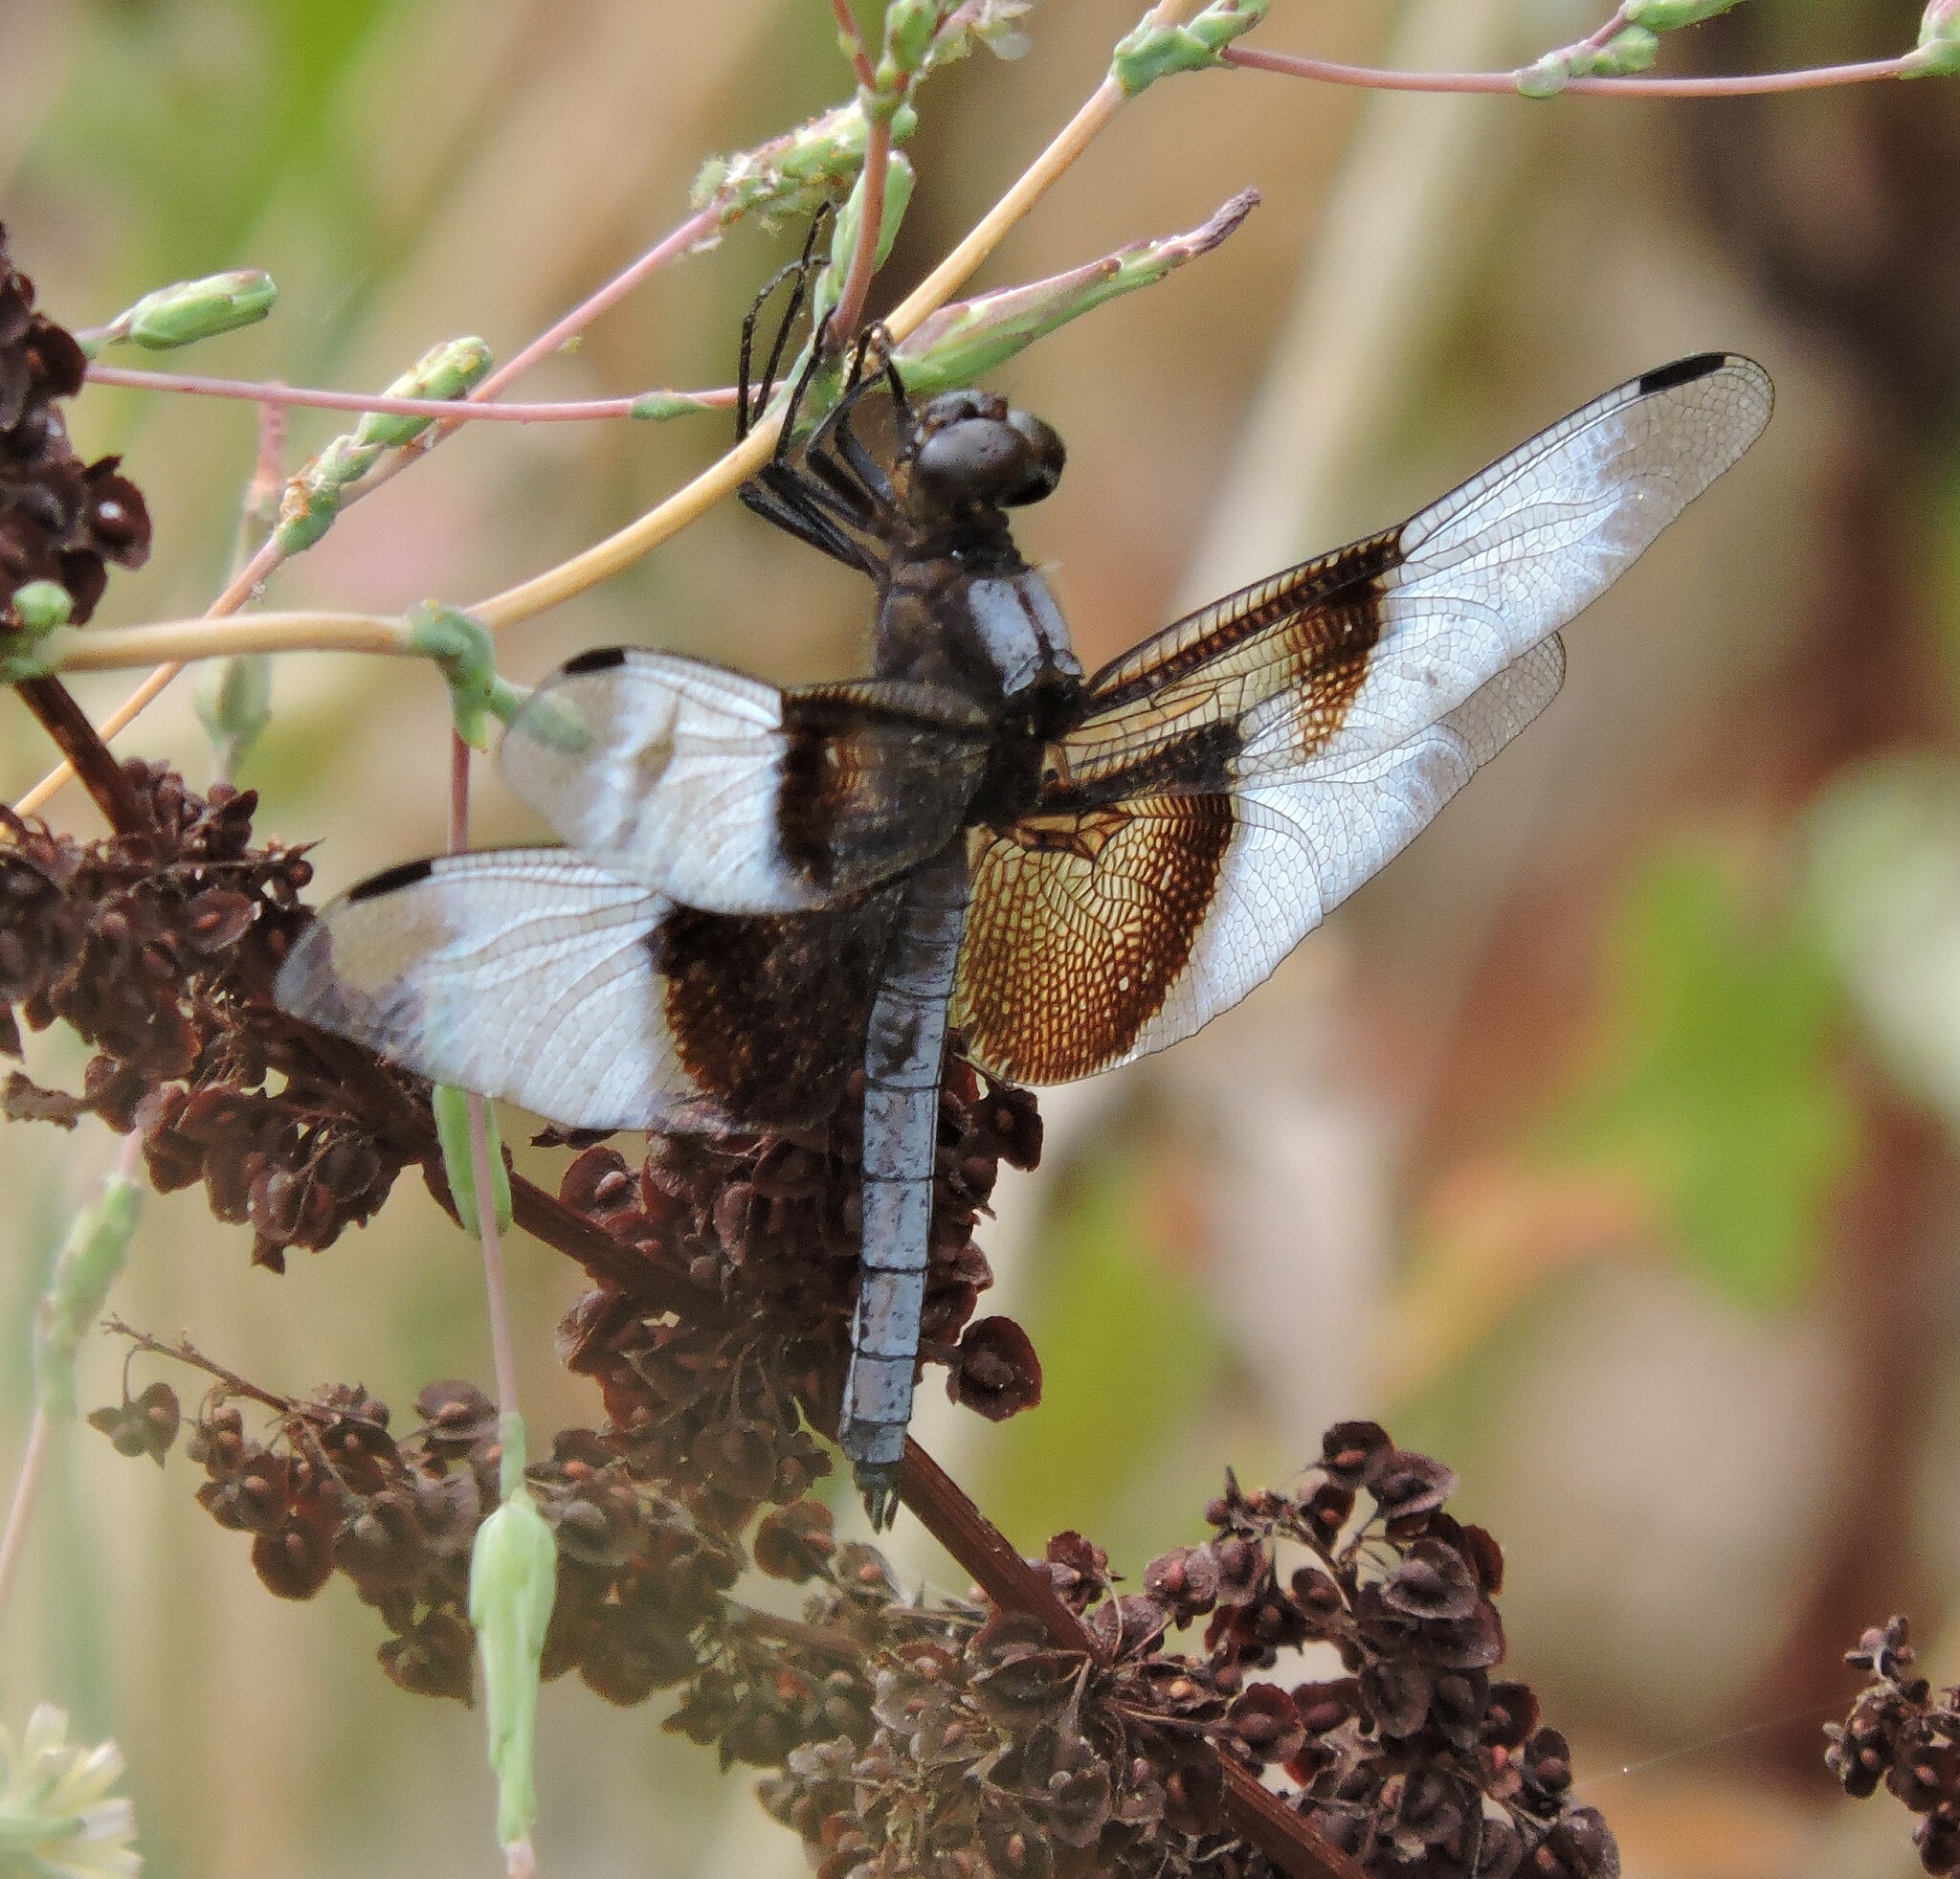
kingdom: Animalia
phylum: Arthropoda
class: Insecta
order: Odonata
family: Libellulidae
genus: Libellula
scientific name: Libellula luctuosa
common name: Widow skimmer
